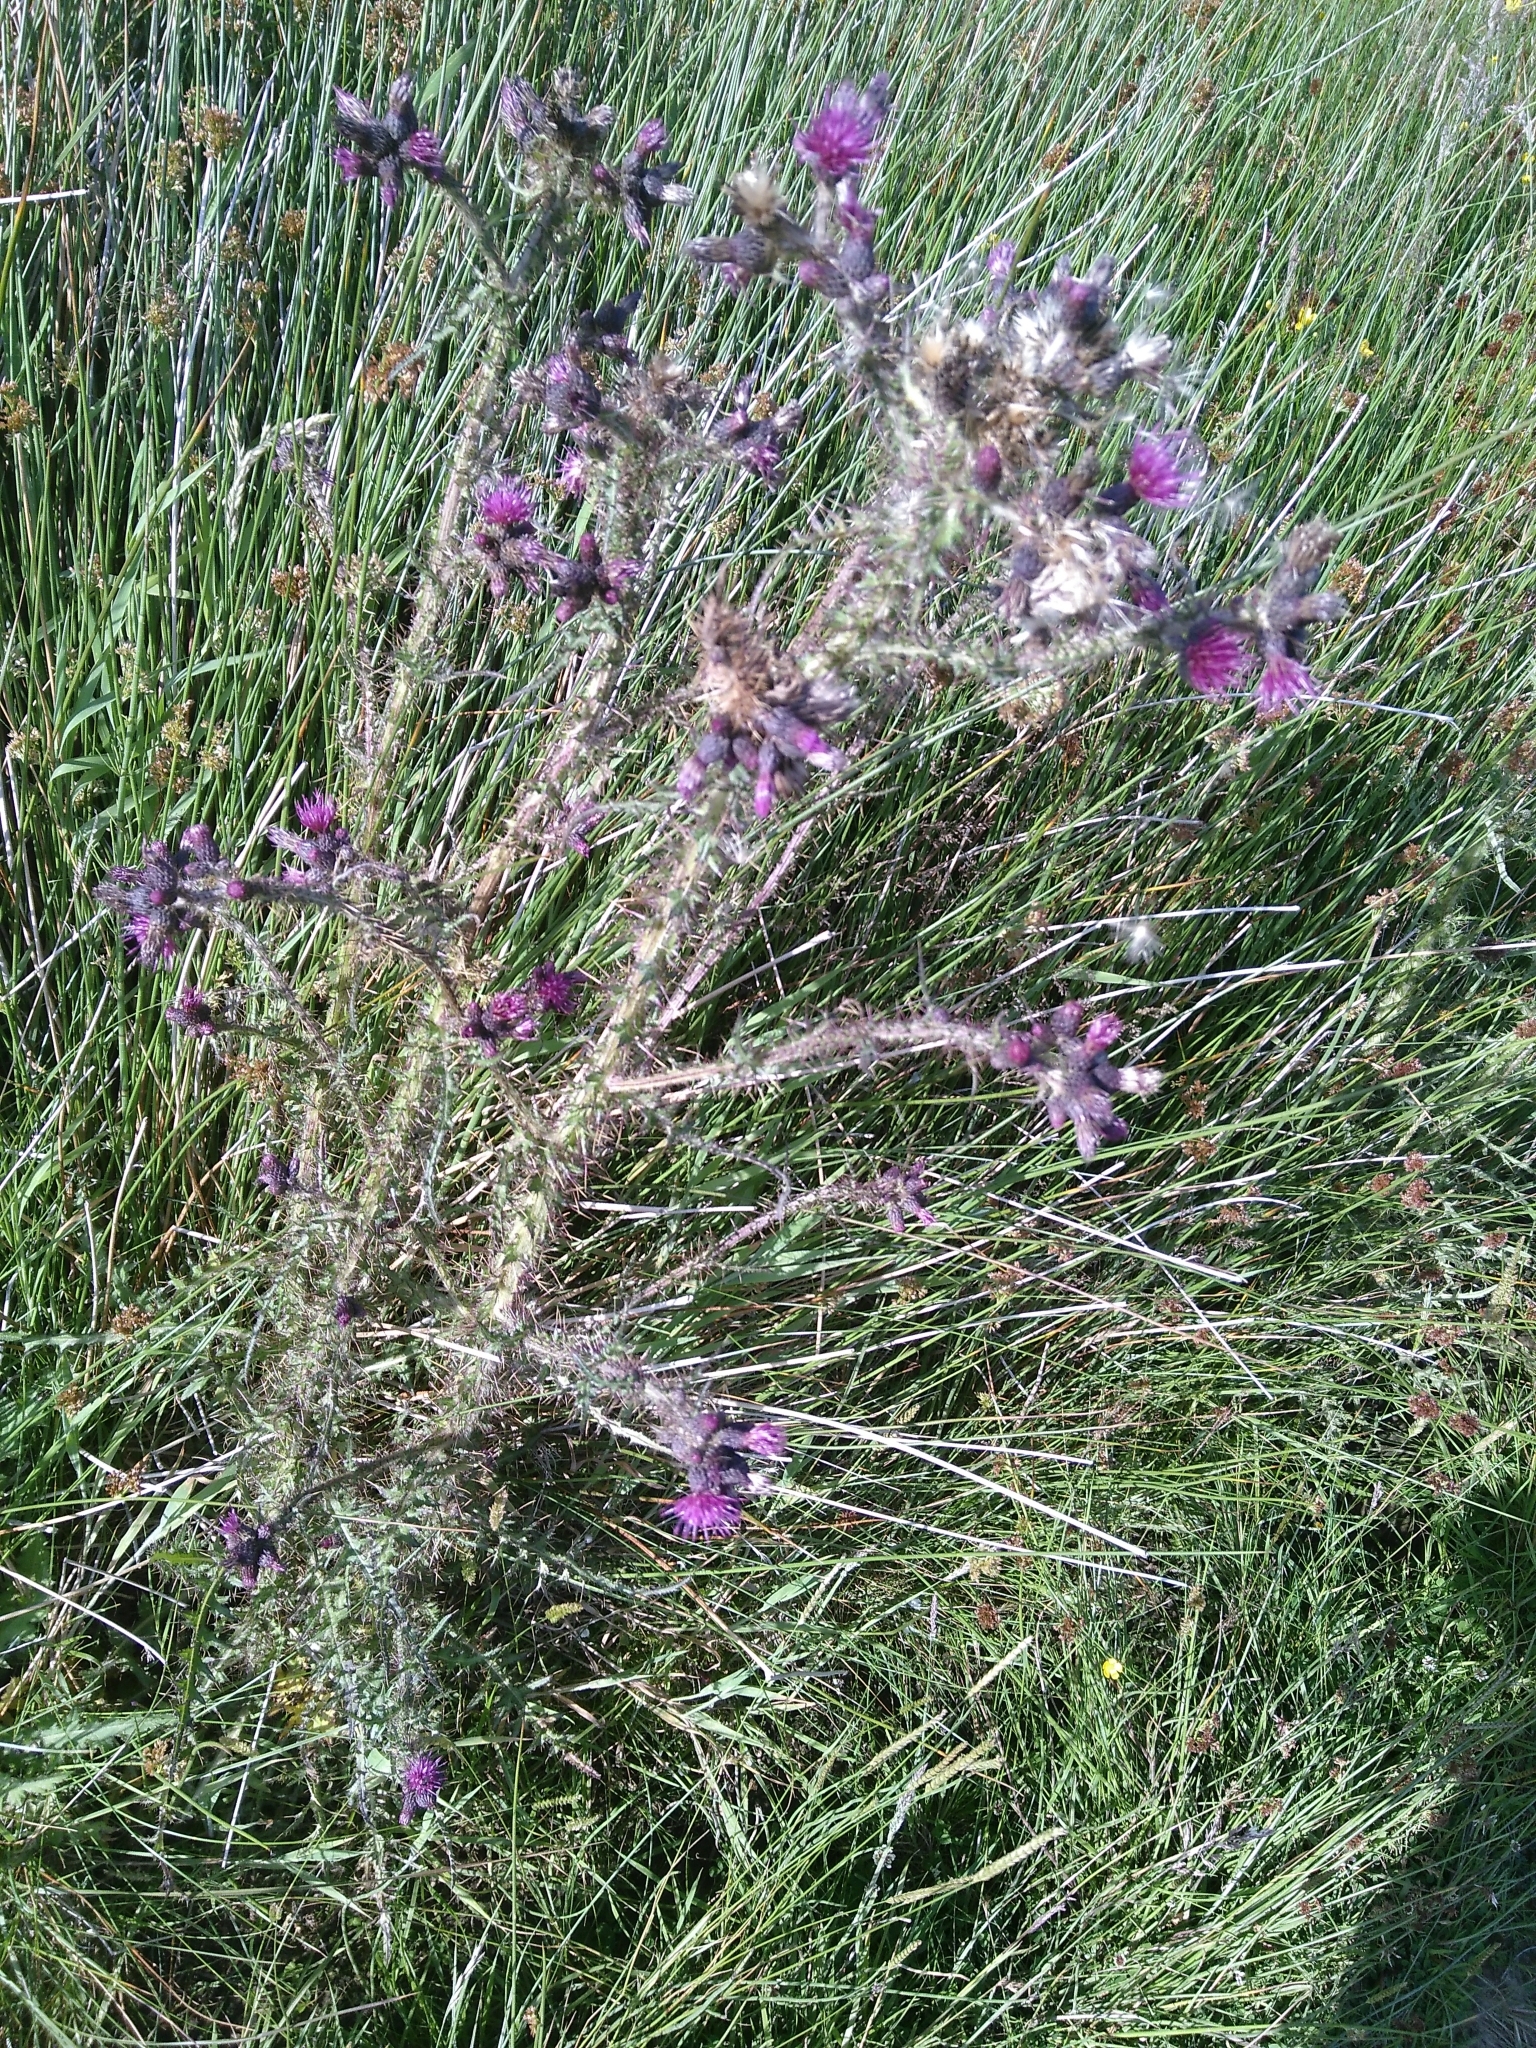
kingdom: Plantae
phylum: Tracheophyta
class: Magnoliopsida
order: Asterales
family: Asteraceae
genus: Cirsium
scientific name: Cirsium palustre
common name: Marsh thistle
